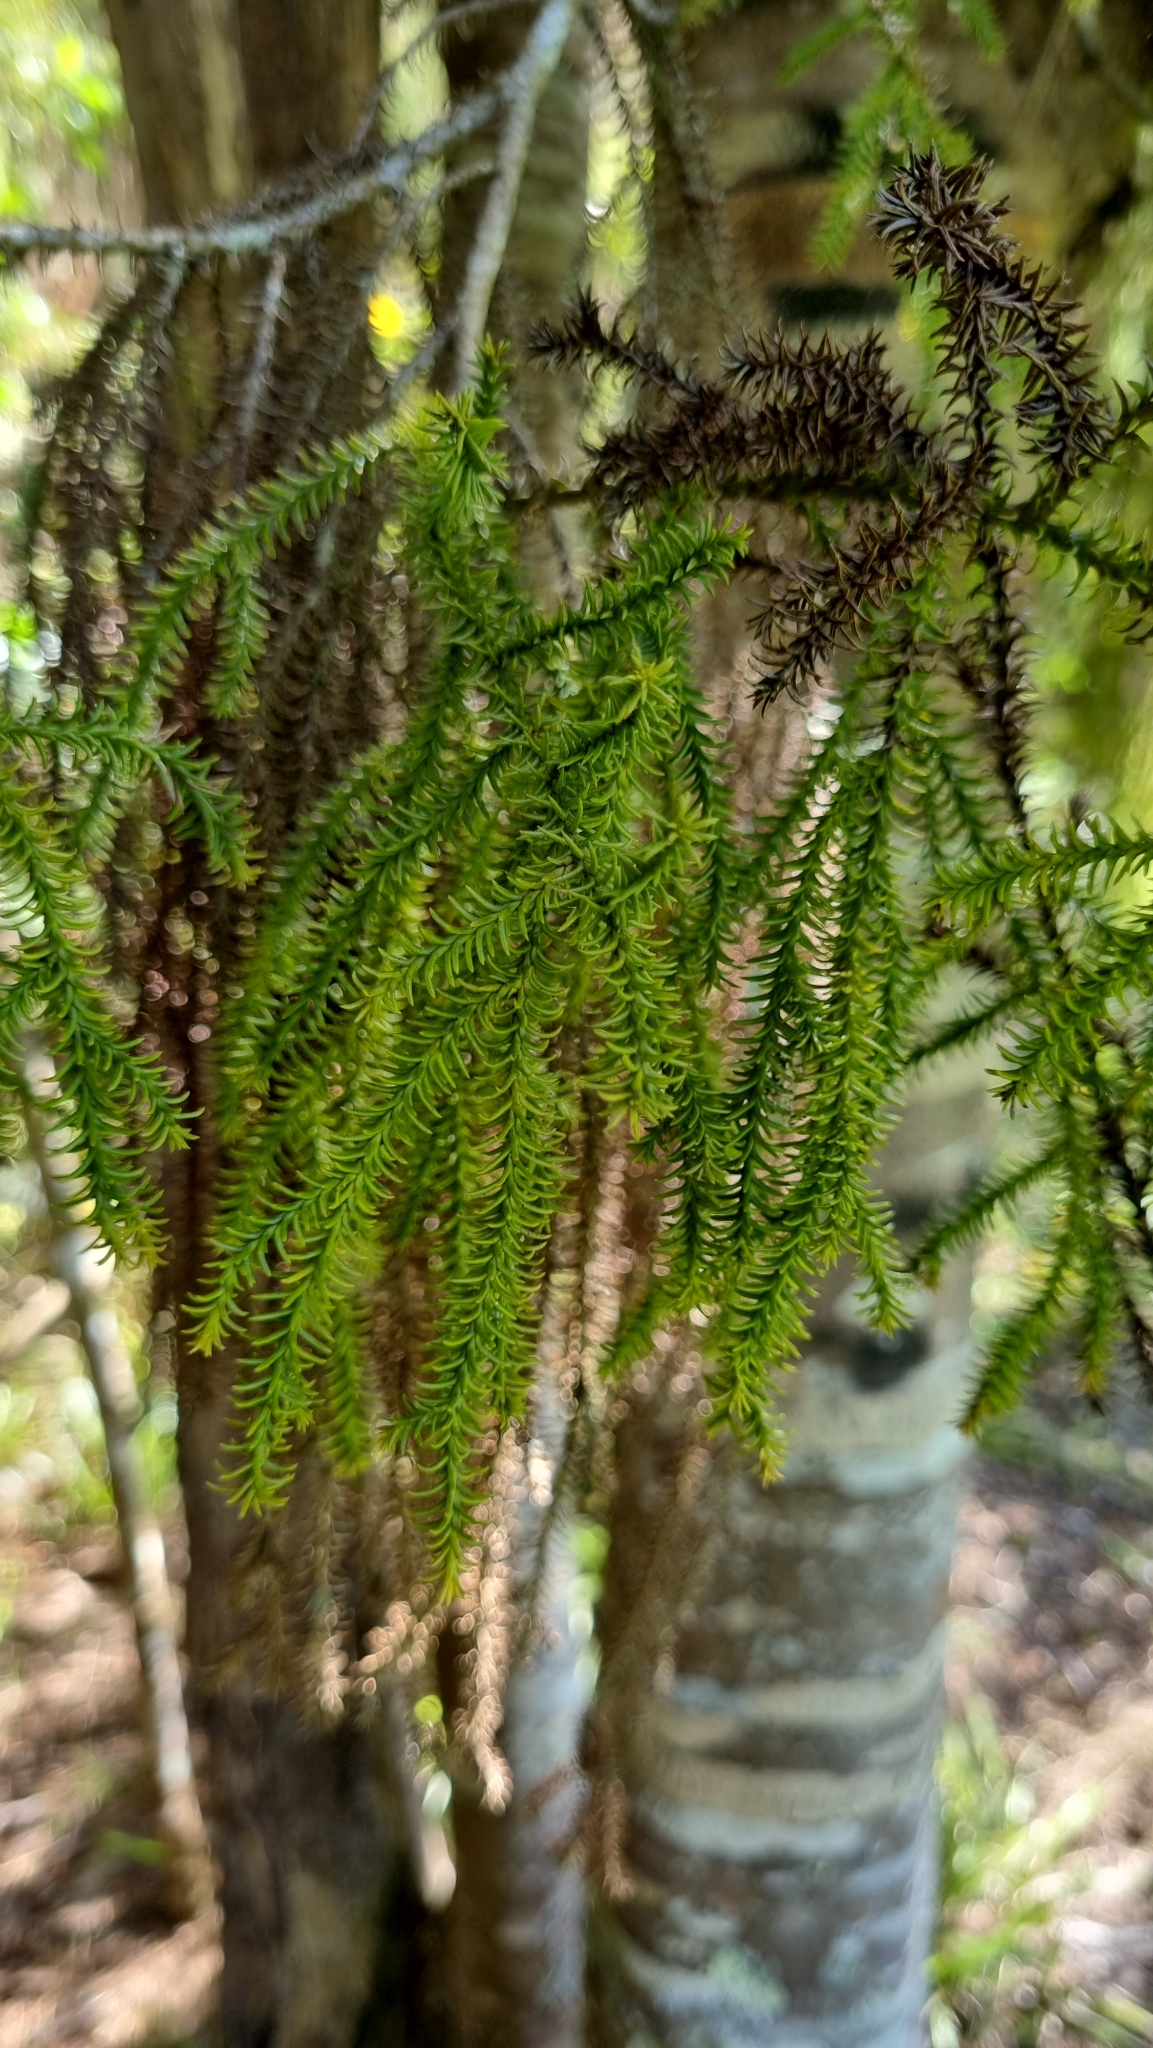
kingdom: Plantae
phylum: Tracheophyta
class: Pinopsida
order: Pinales
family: Podocarpaceae
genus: Dacrydium
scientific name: Dacrydium cupressinum
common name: Red pine
